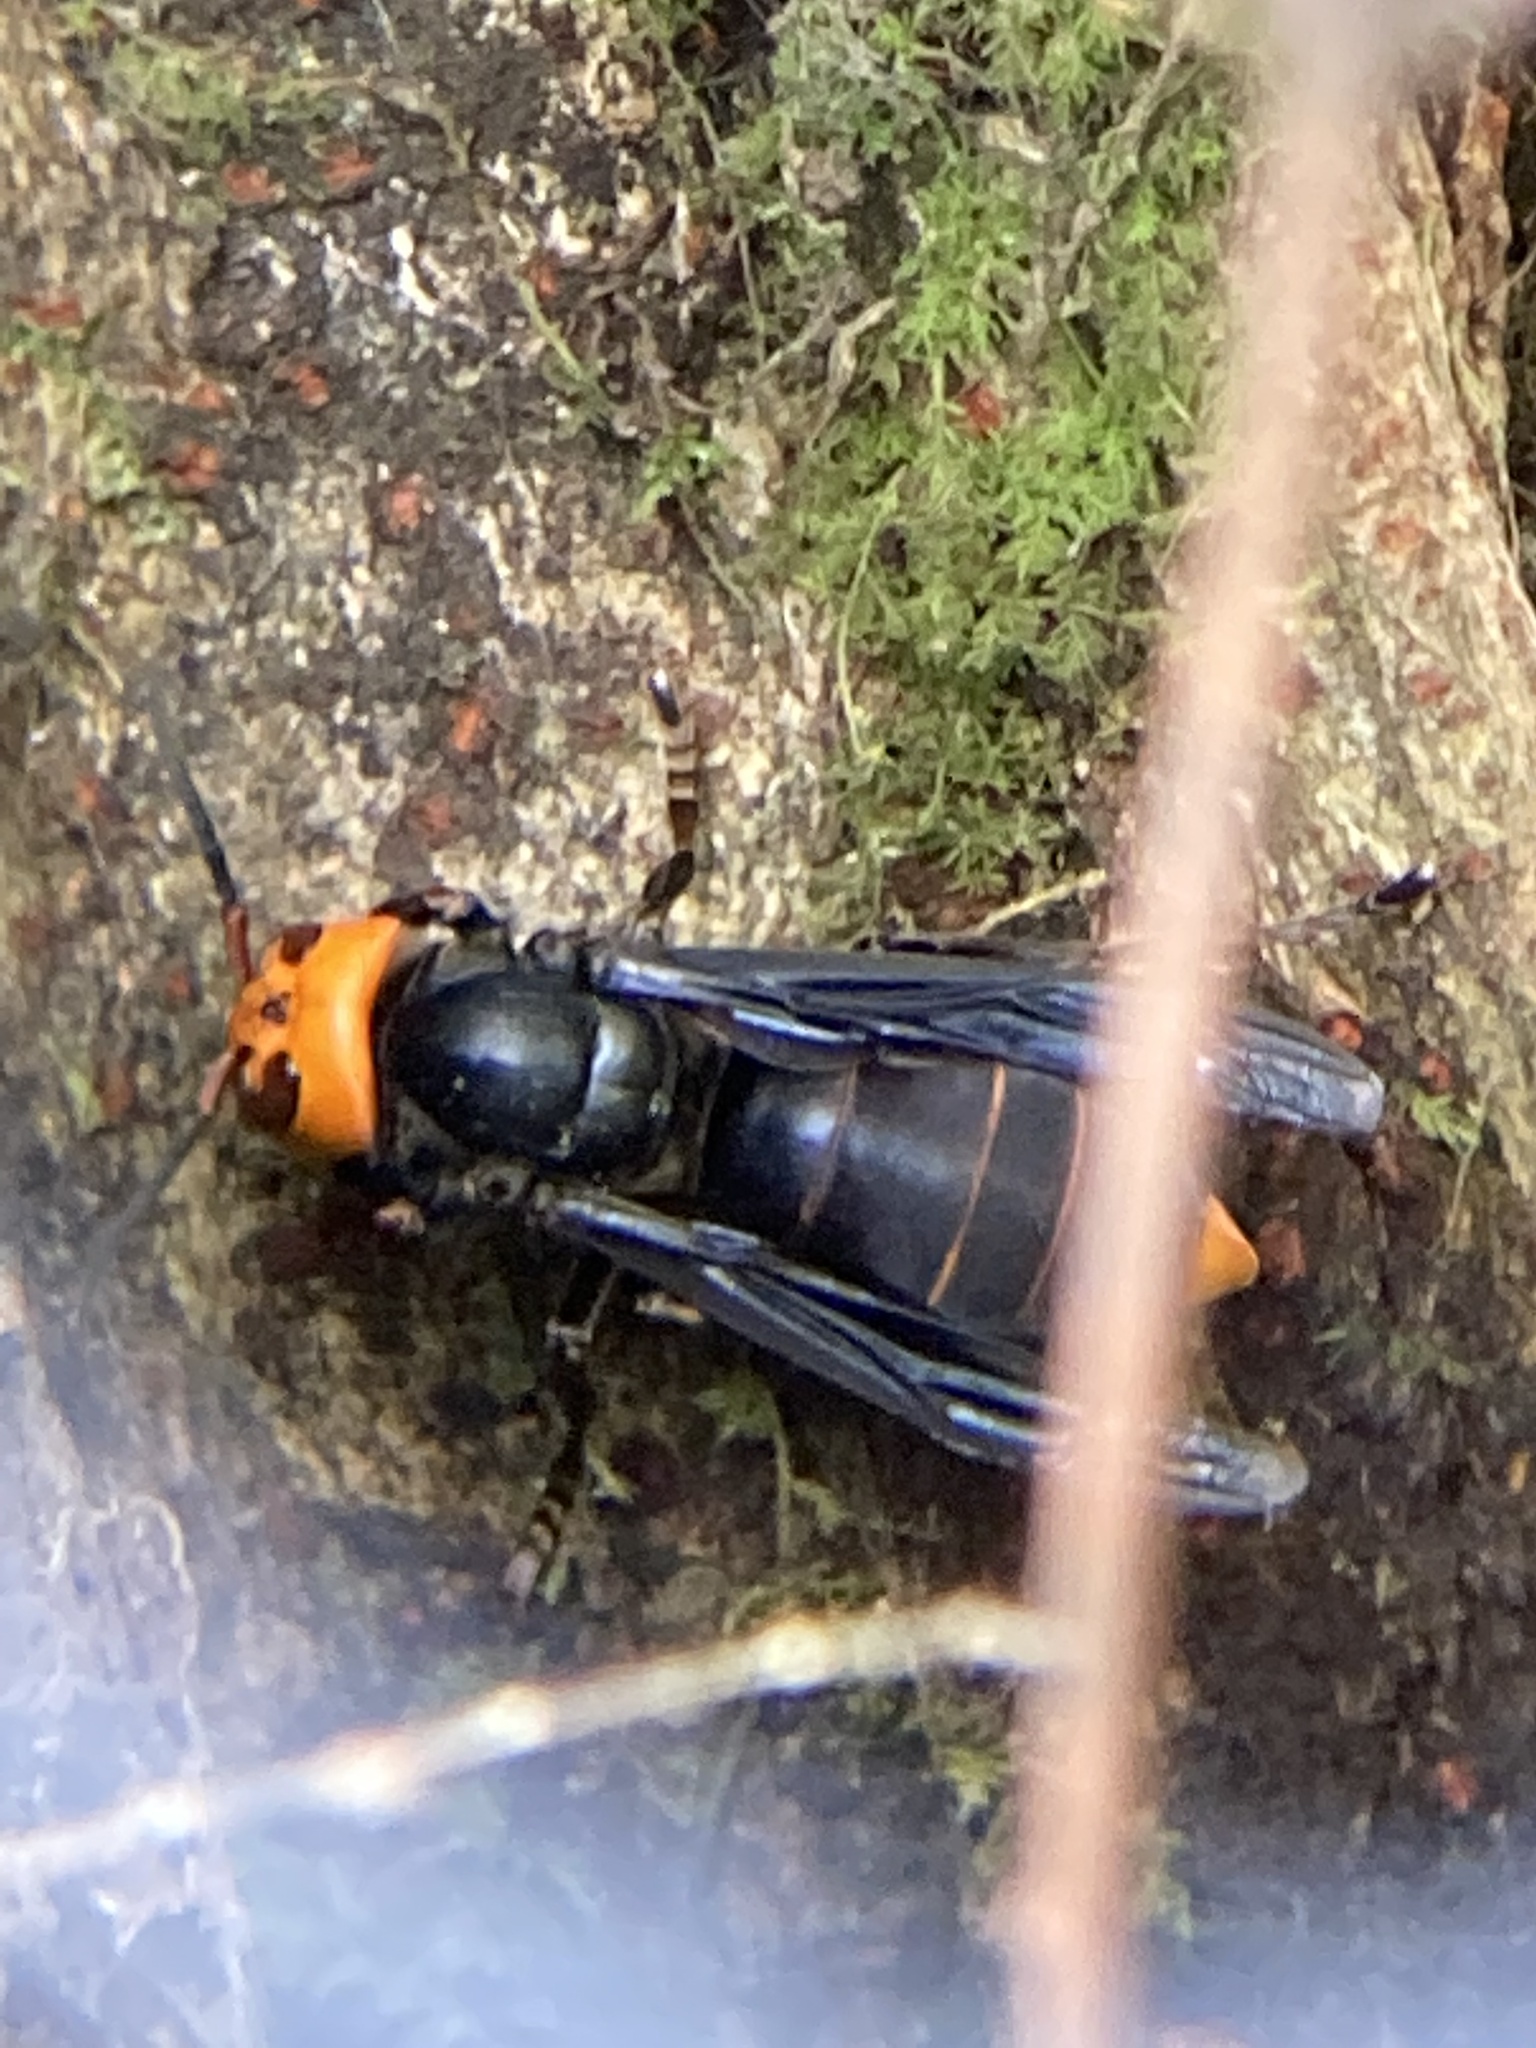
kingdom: Animalia
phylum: Arthropoda
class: Insecta
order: Hymenoptera
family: Vespidae
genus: Vespa
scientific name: Vespa mandarinia
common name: Asian giant hornet
